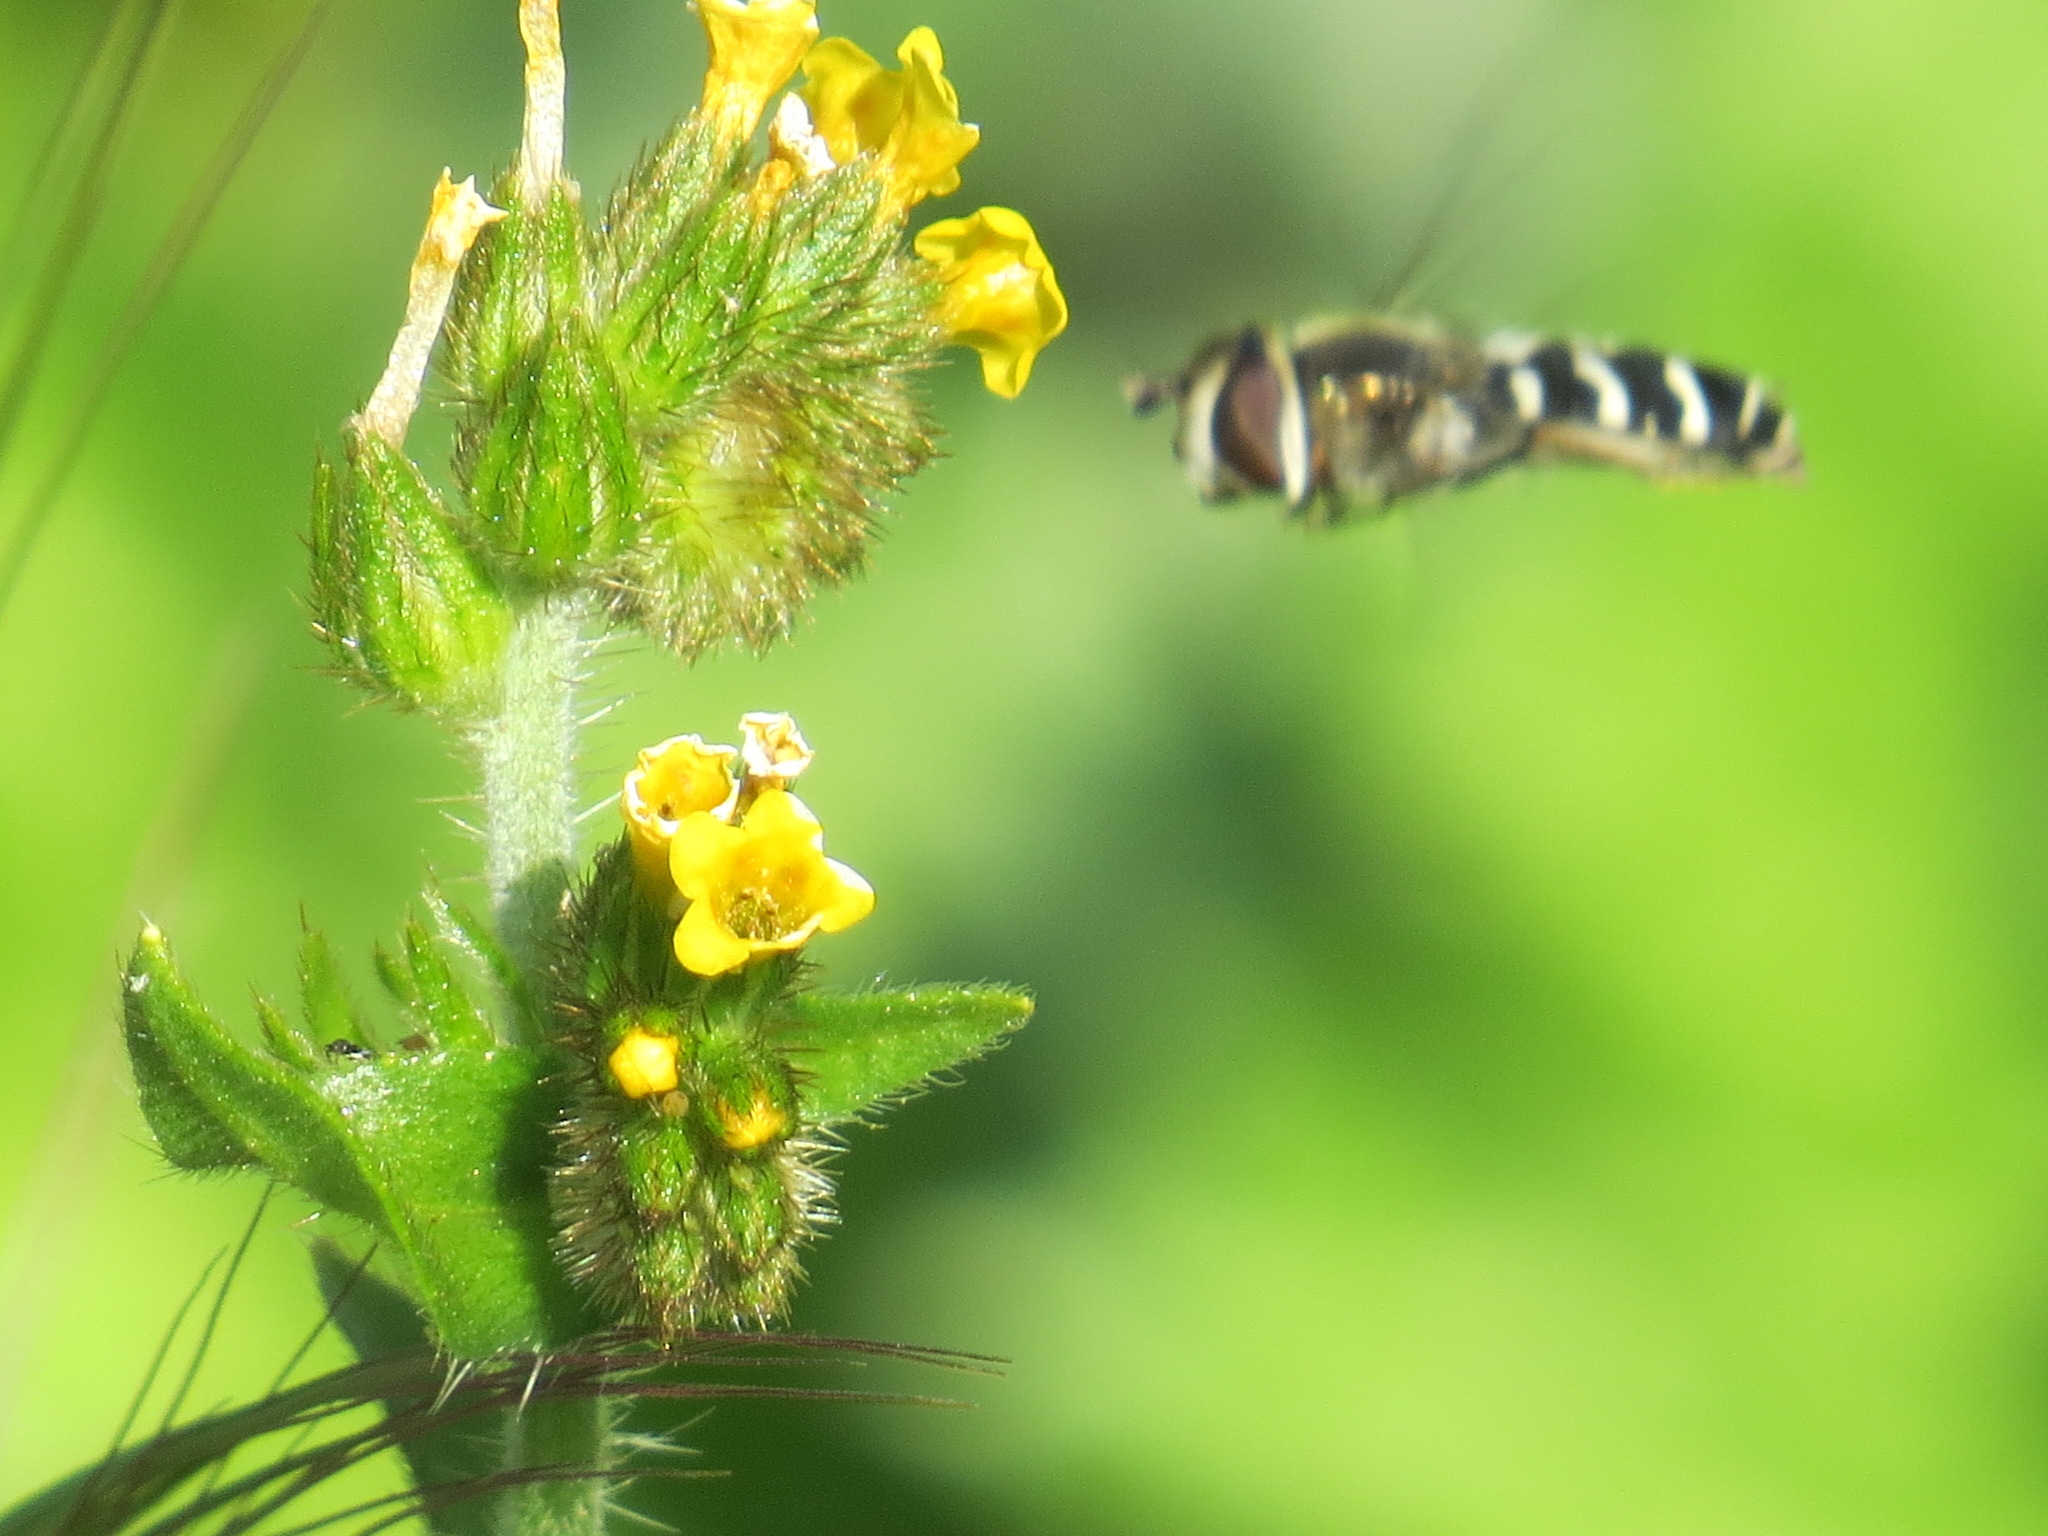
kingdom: Animalia
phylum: Arthropoda
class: Insecta
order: Diptera
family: Syrphidae
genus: Scaeva
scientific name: Scaeva affinis
